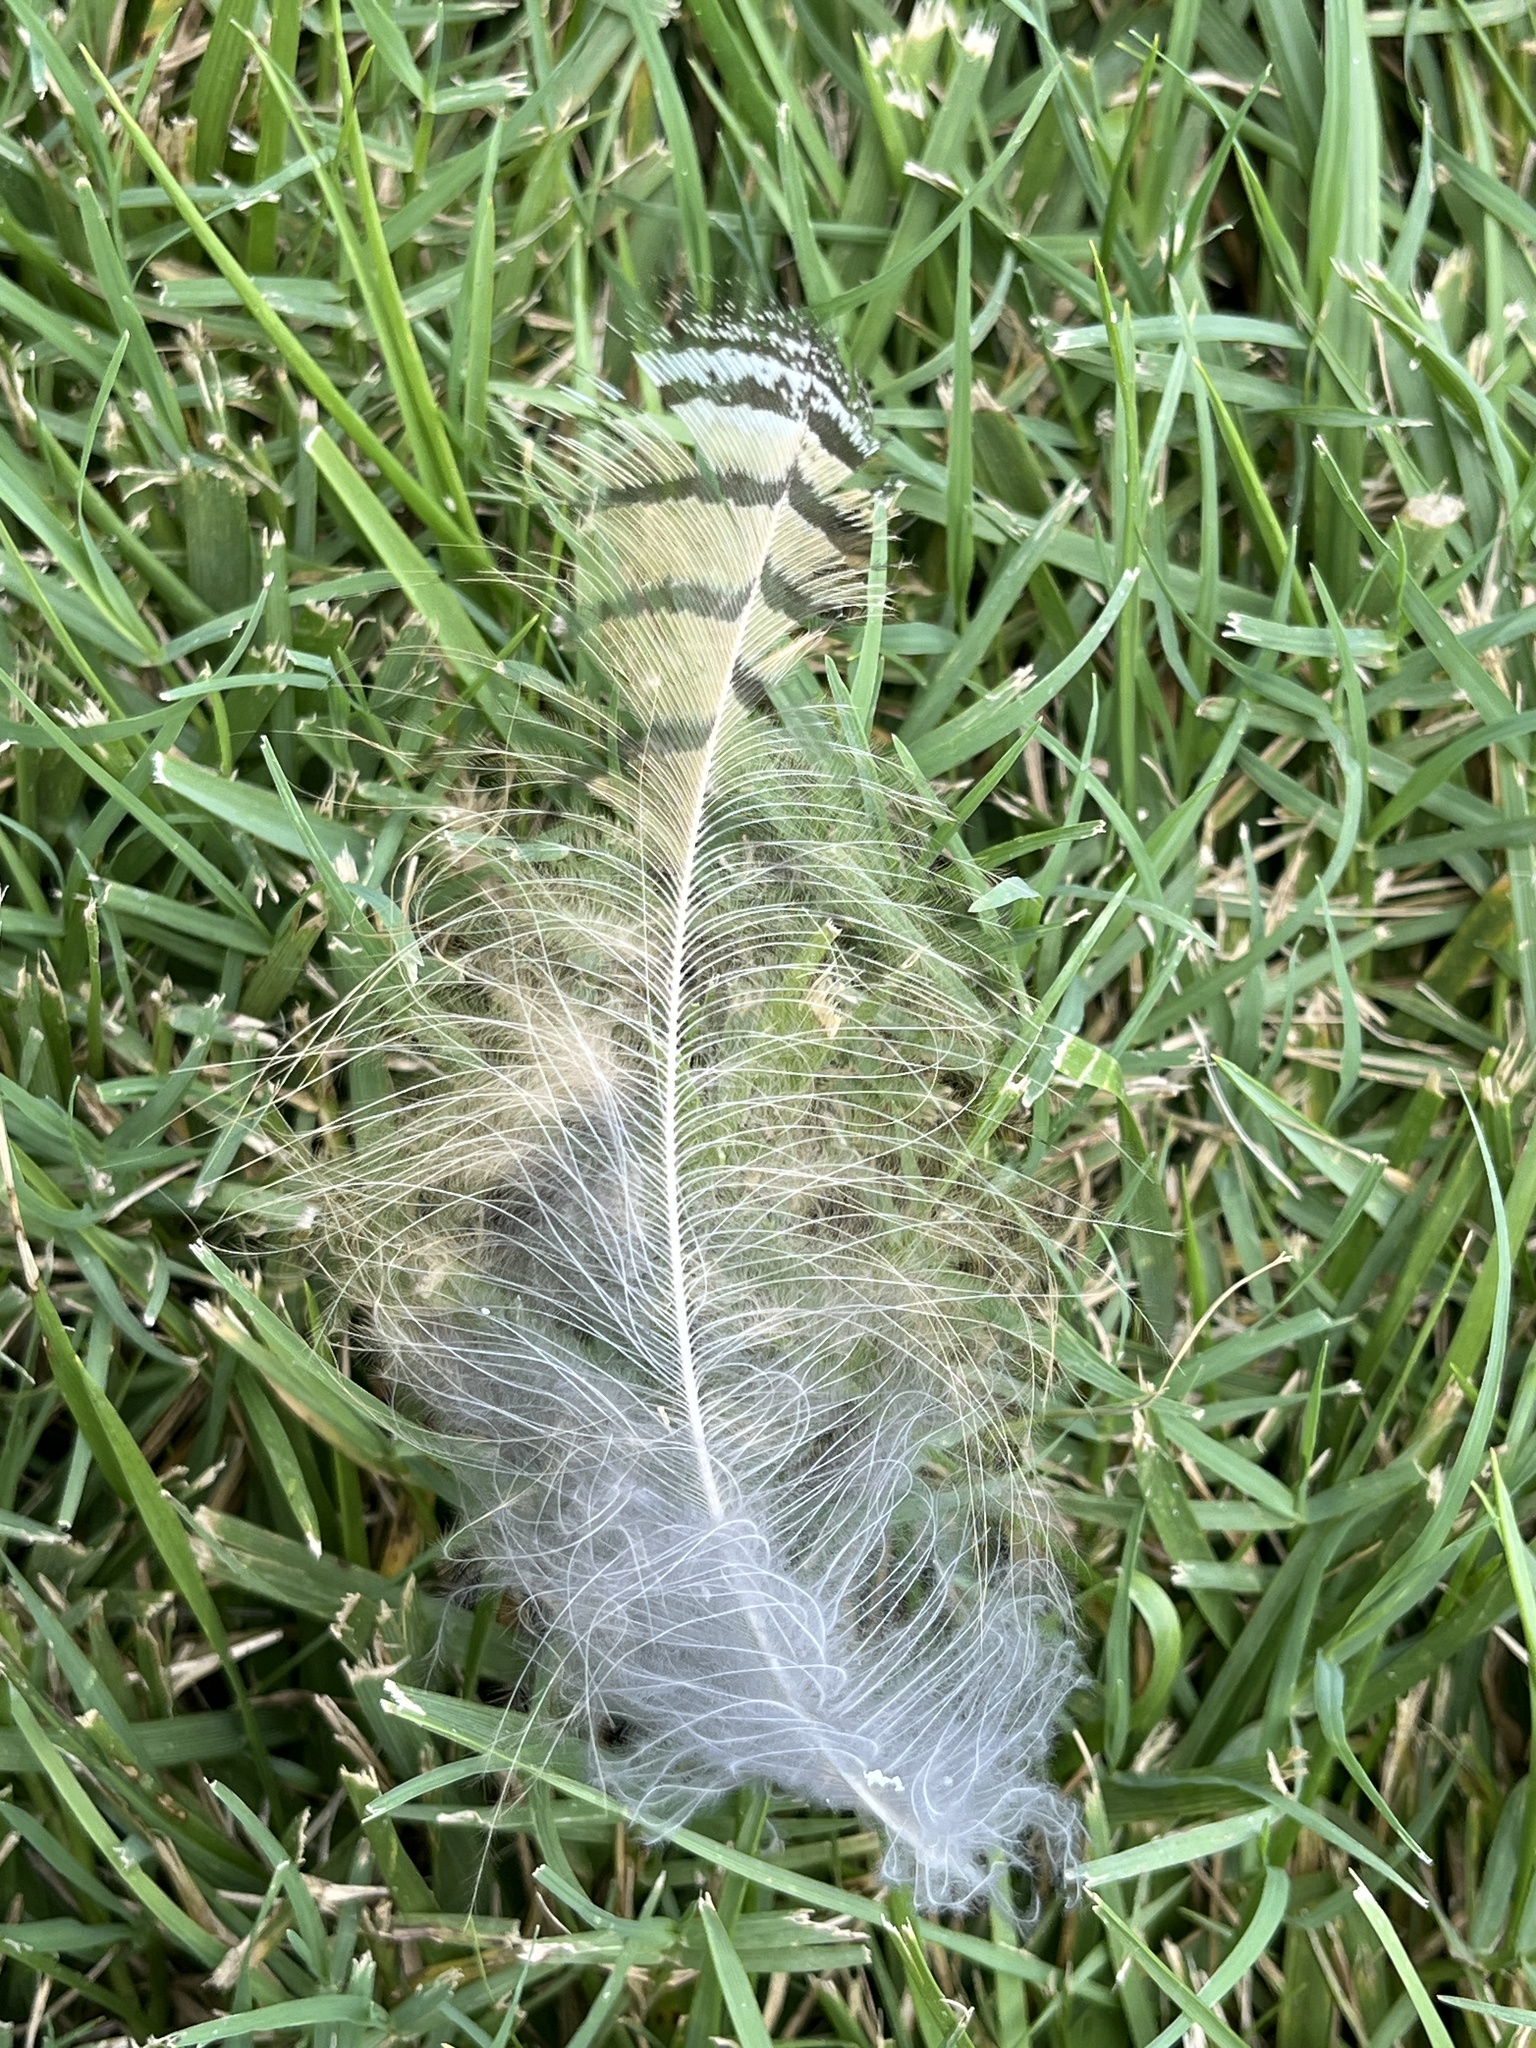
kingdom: Animalia
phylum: Chordata
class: Aves
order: Strigiformes
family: Strigidae
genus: Bubo
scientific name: Bubo virginianus
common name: Great horned owl
